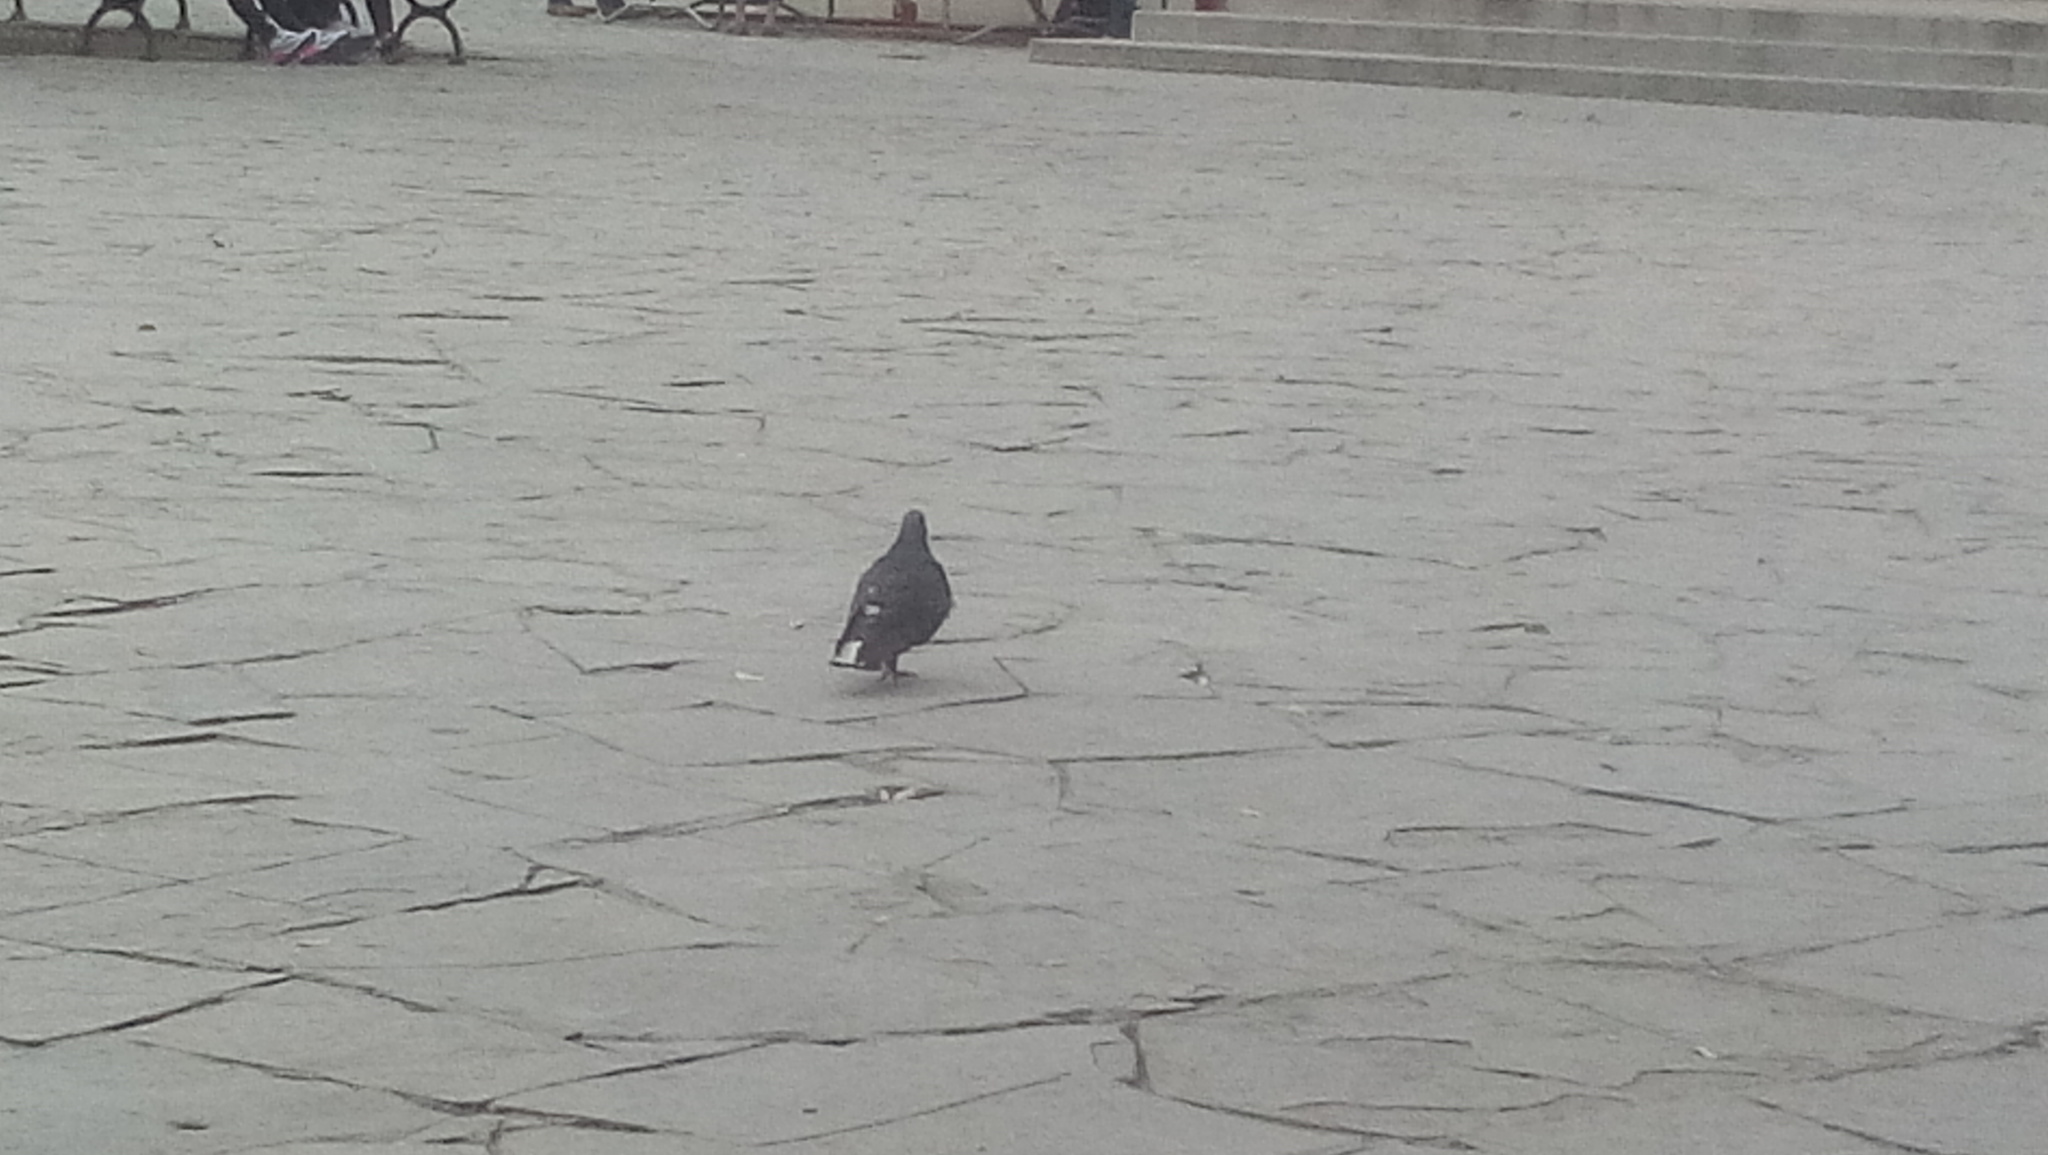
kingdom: Animalia
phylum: Chordata
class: Aves
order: Columbiformes
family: Columbidae
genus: Columba
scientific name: Columba livia
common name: Rock pigeon
